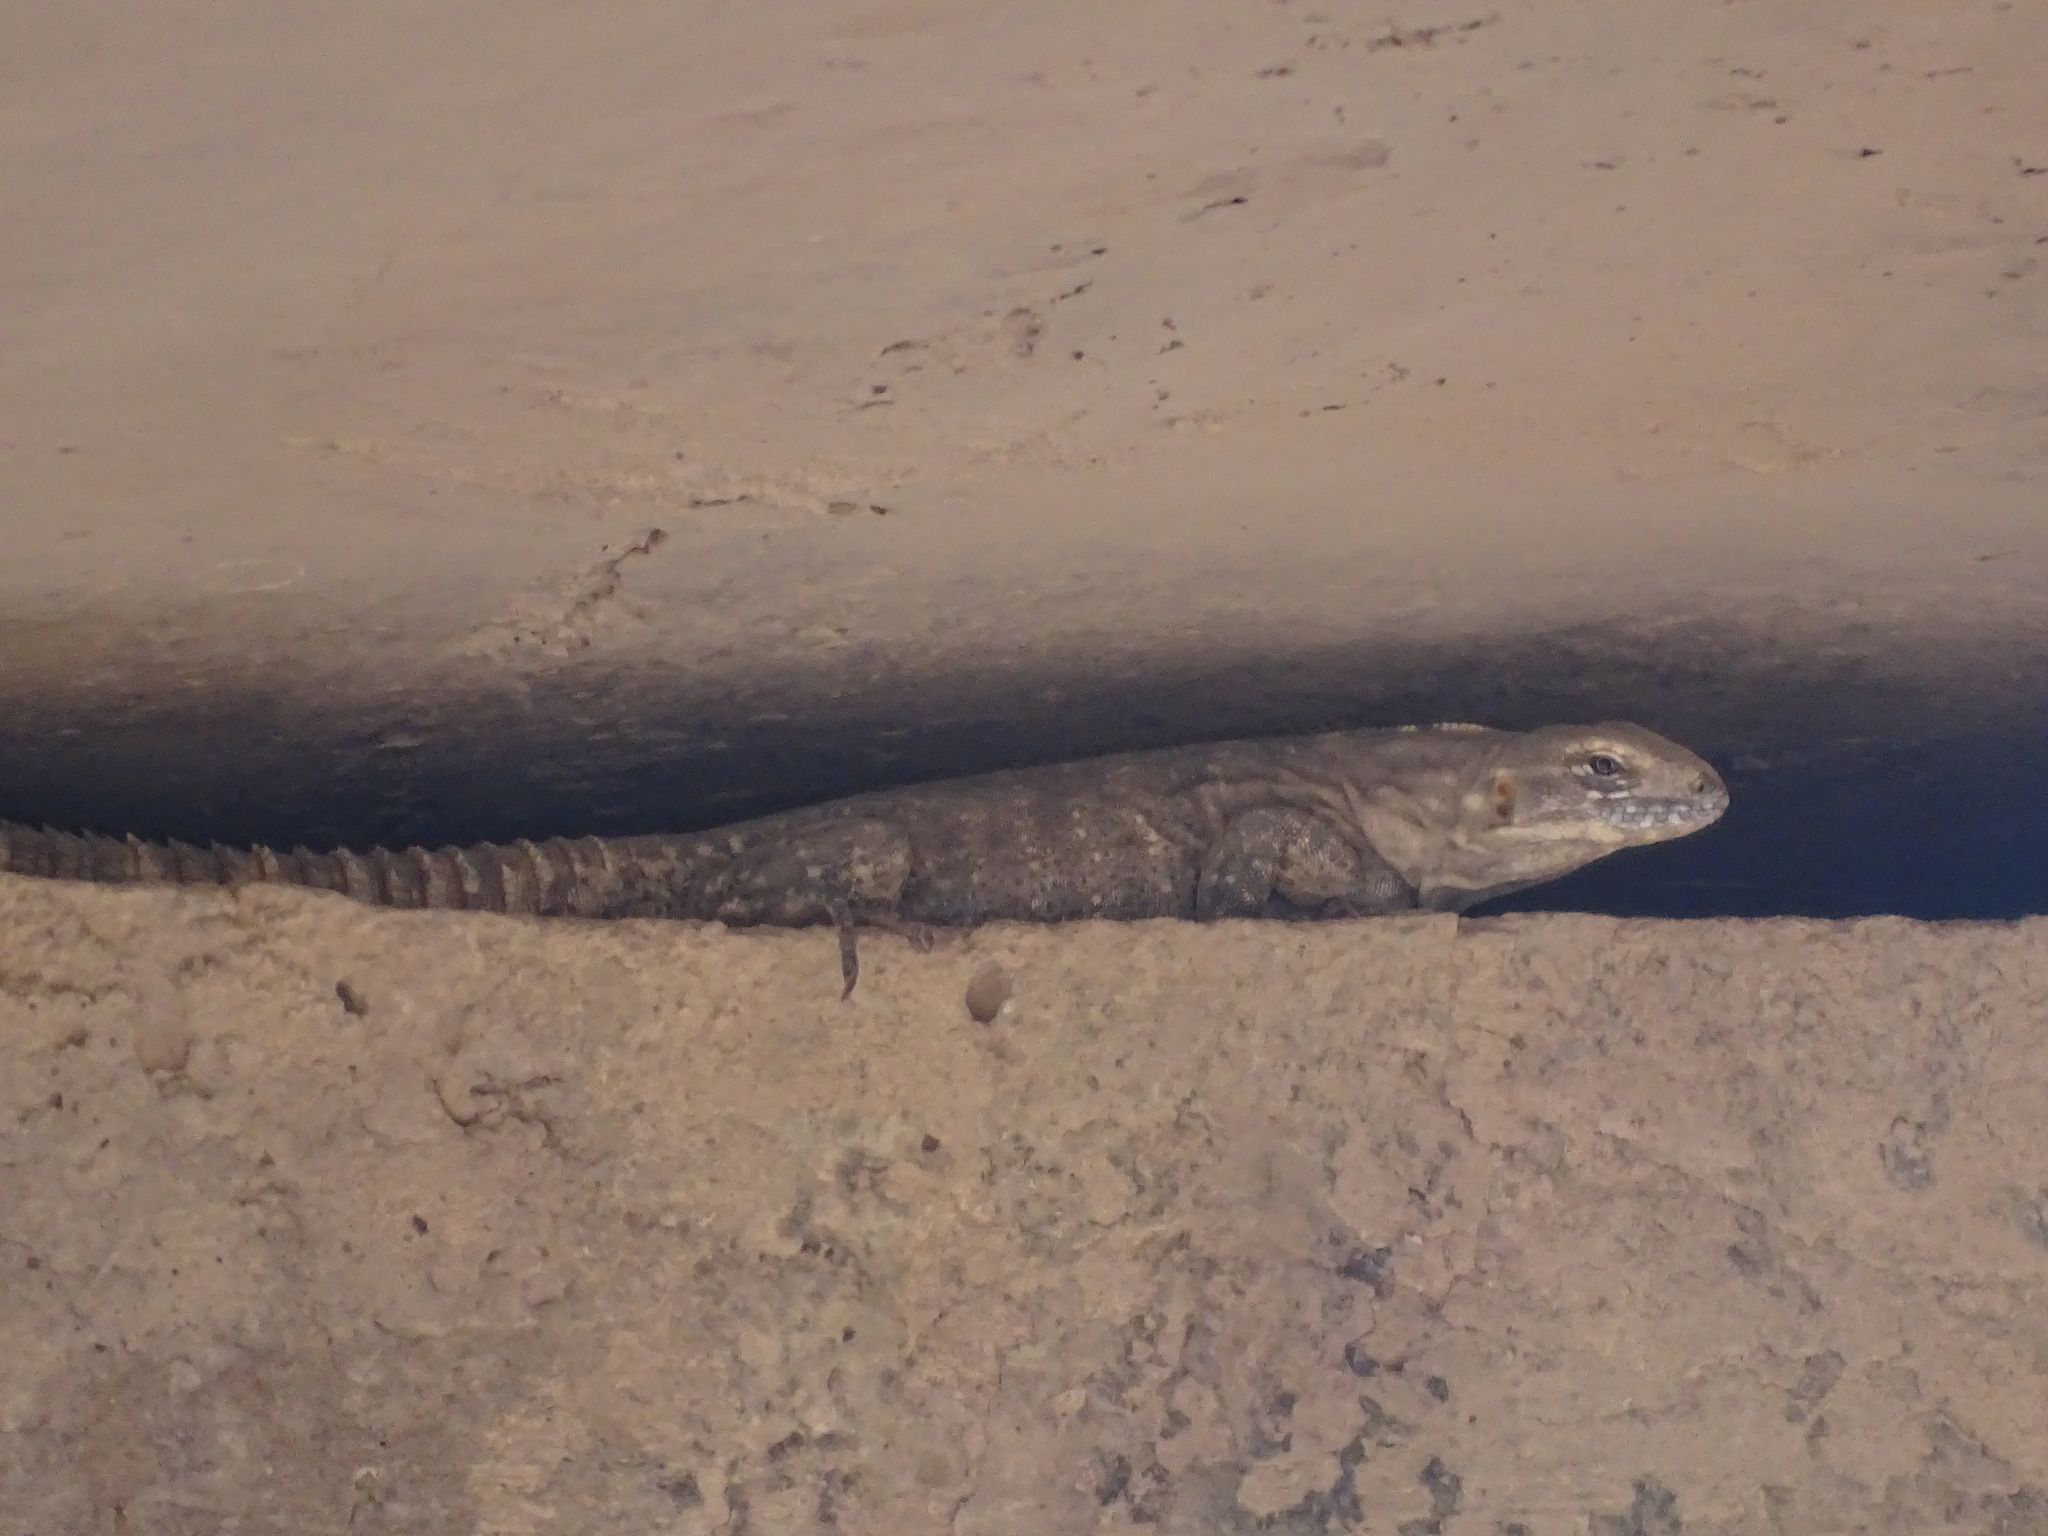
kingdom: Animalia
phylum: Chordata
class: Squamata
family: Iguanidae
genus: Ctenosaura
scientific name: Ctenosaura macrolopha
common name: Cape spinytail iguana
